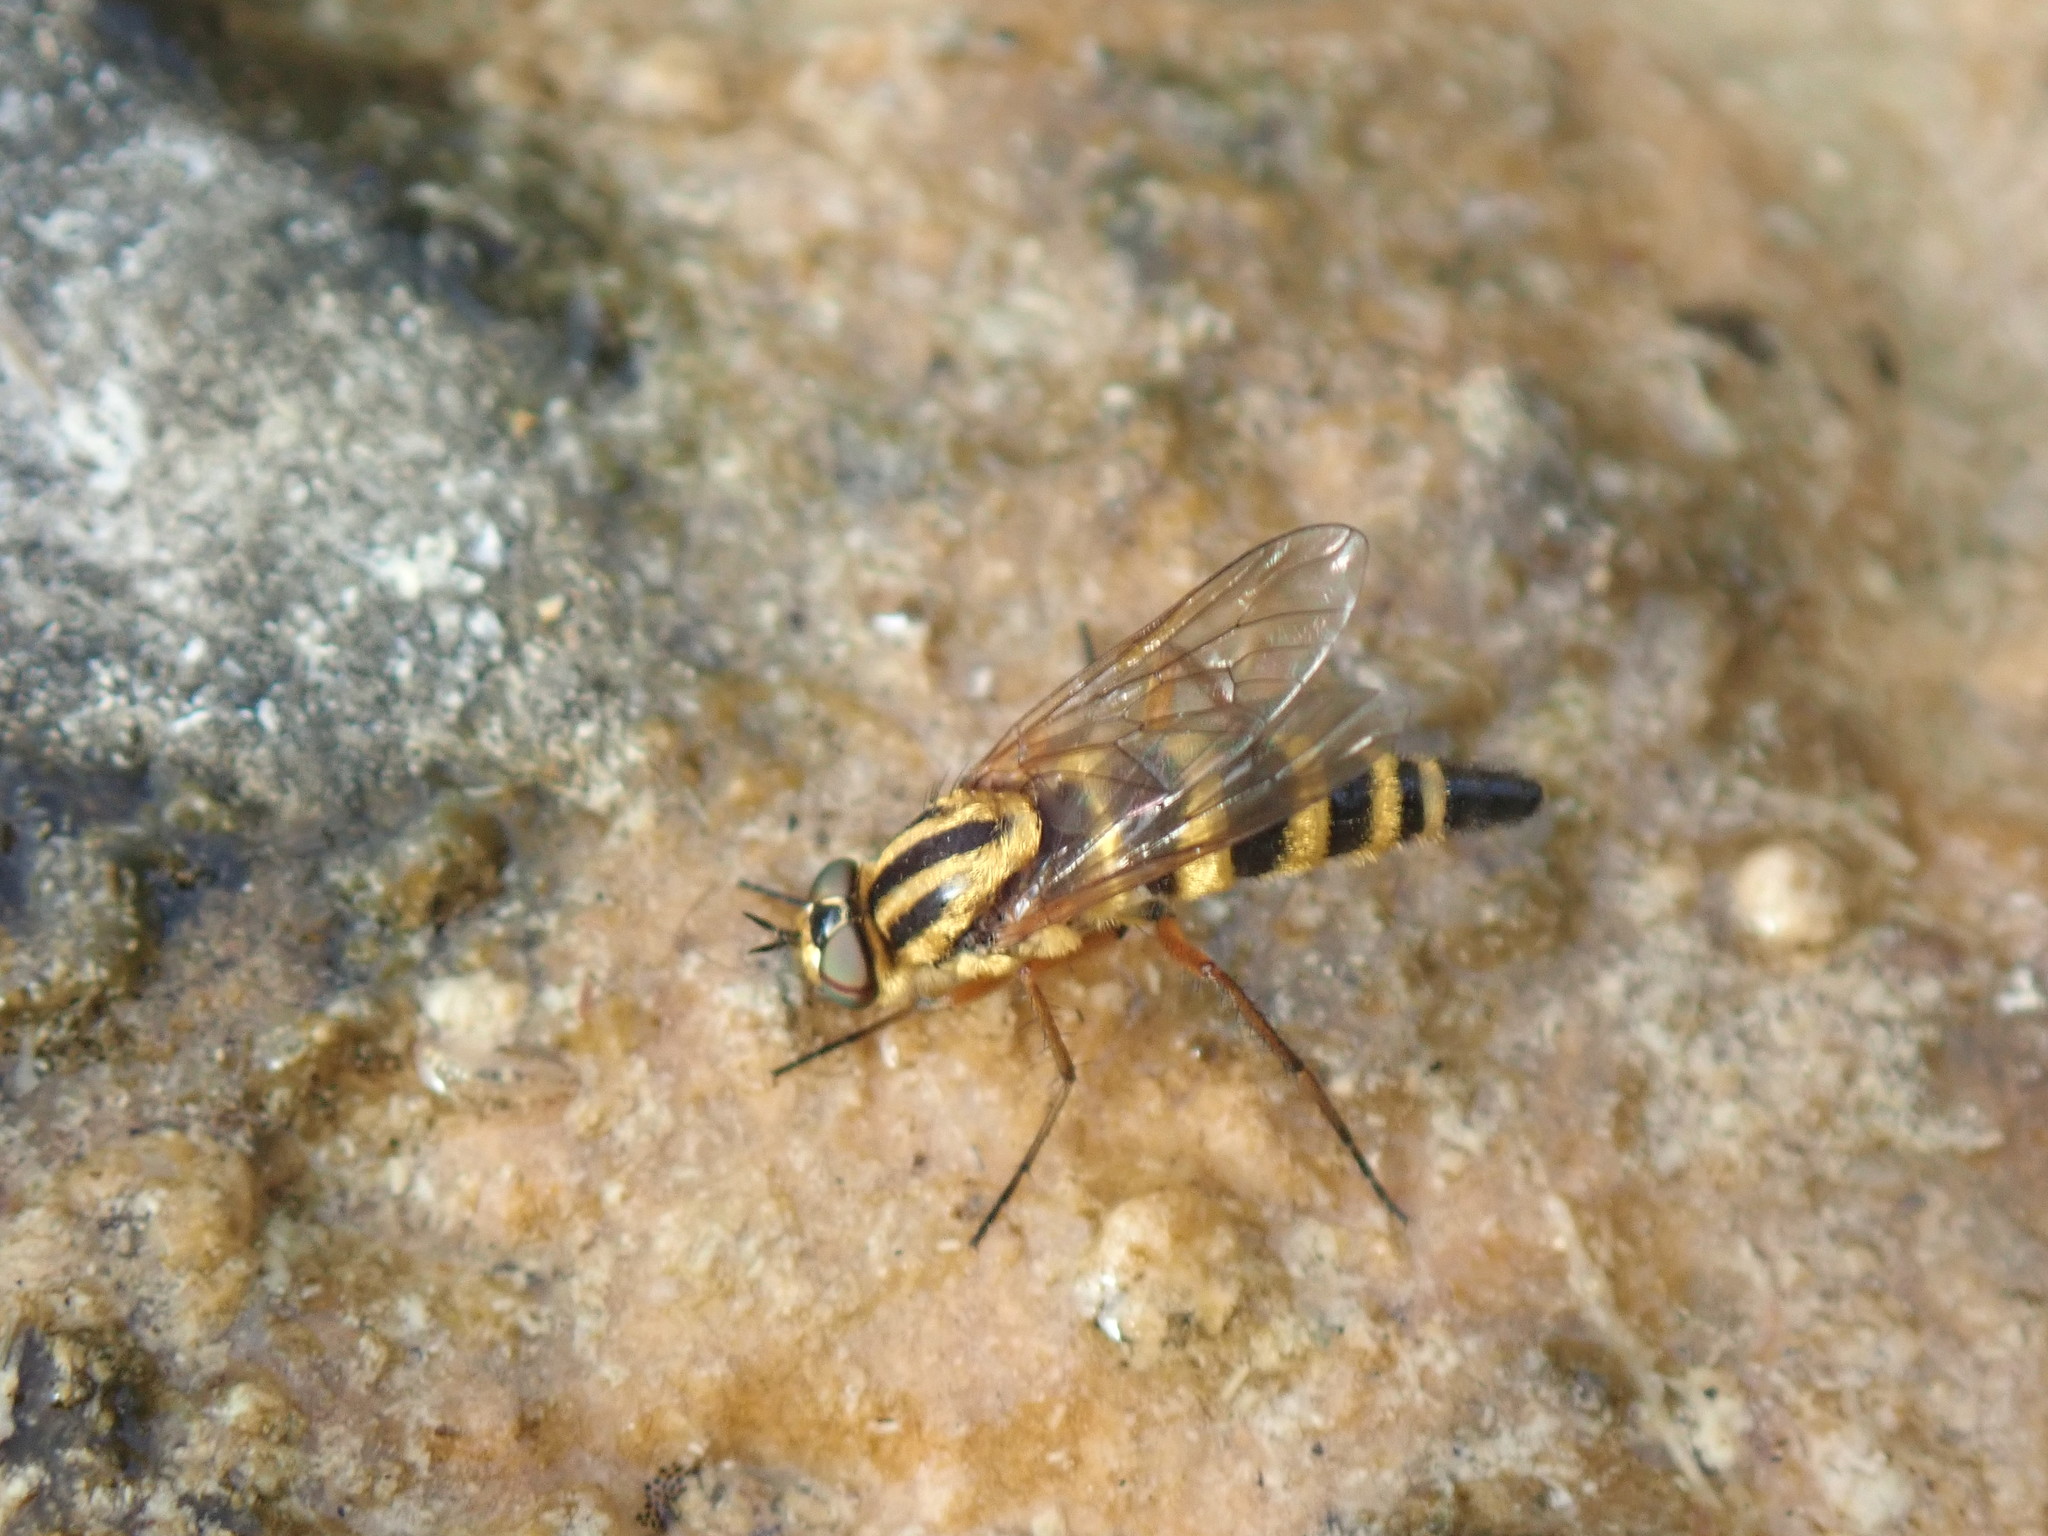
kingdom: Animalia
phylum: Arthropoda
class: Insecta
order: Diptera
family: Therevidae
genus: Thereva
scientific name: Thereva aurata
